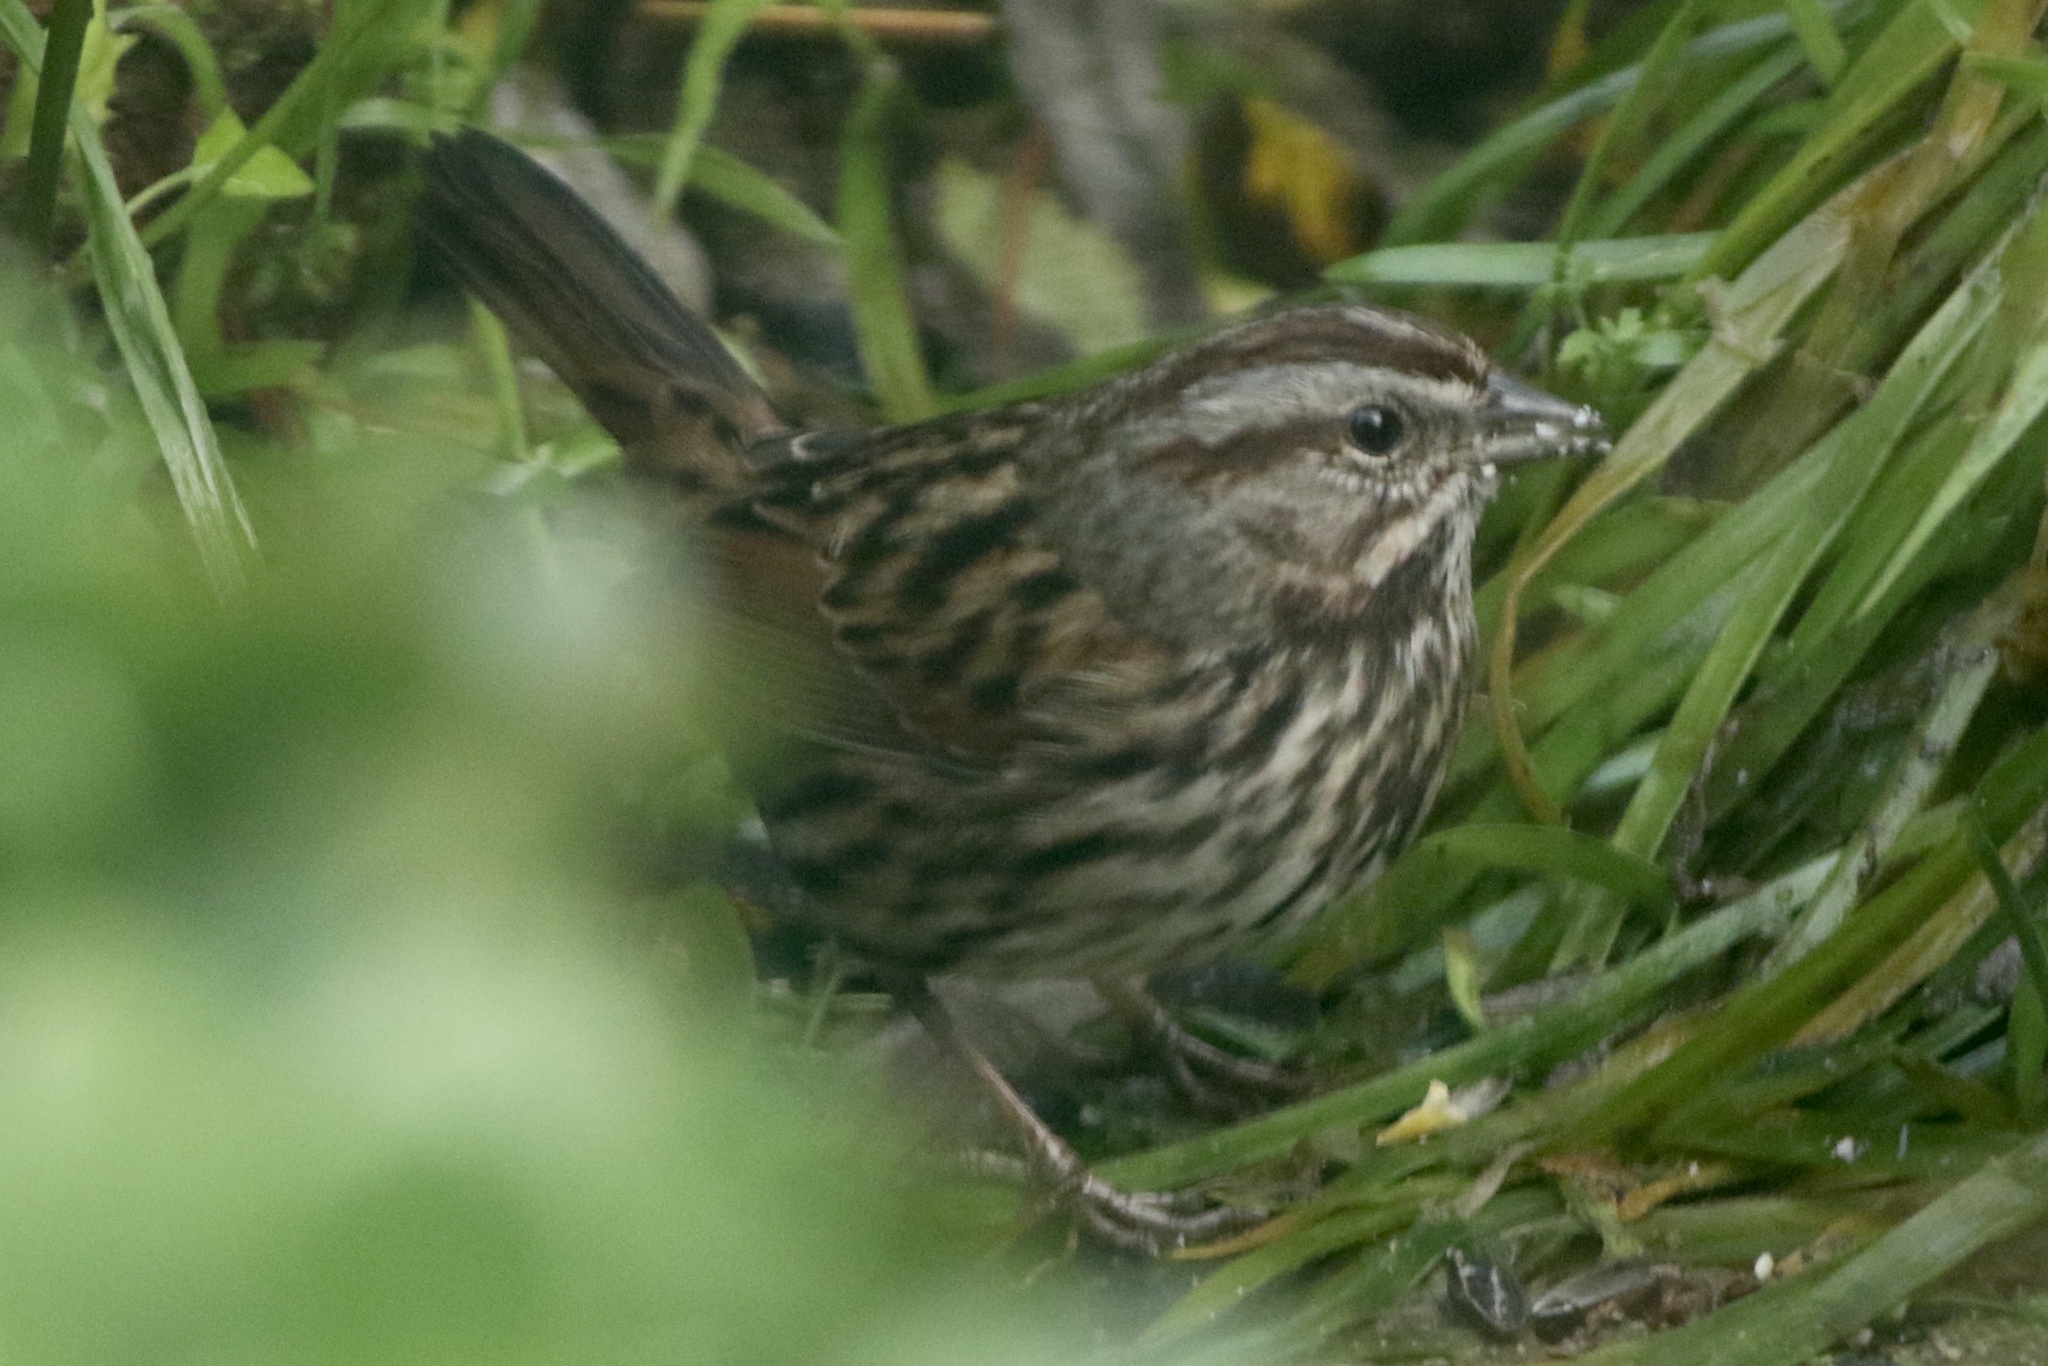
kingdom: Animalia
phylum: Chordata
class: Aves
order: Passeriformes
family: Passerellidae
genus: Melospiza
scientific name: Melospiza melodia
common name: Song sparrow
